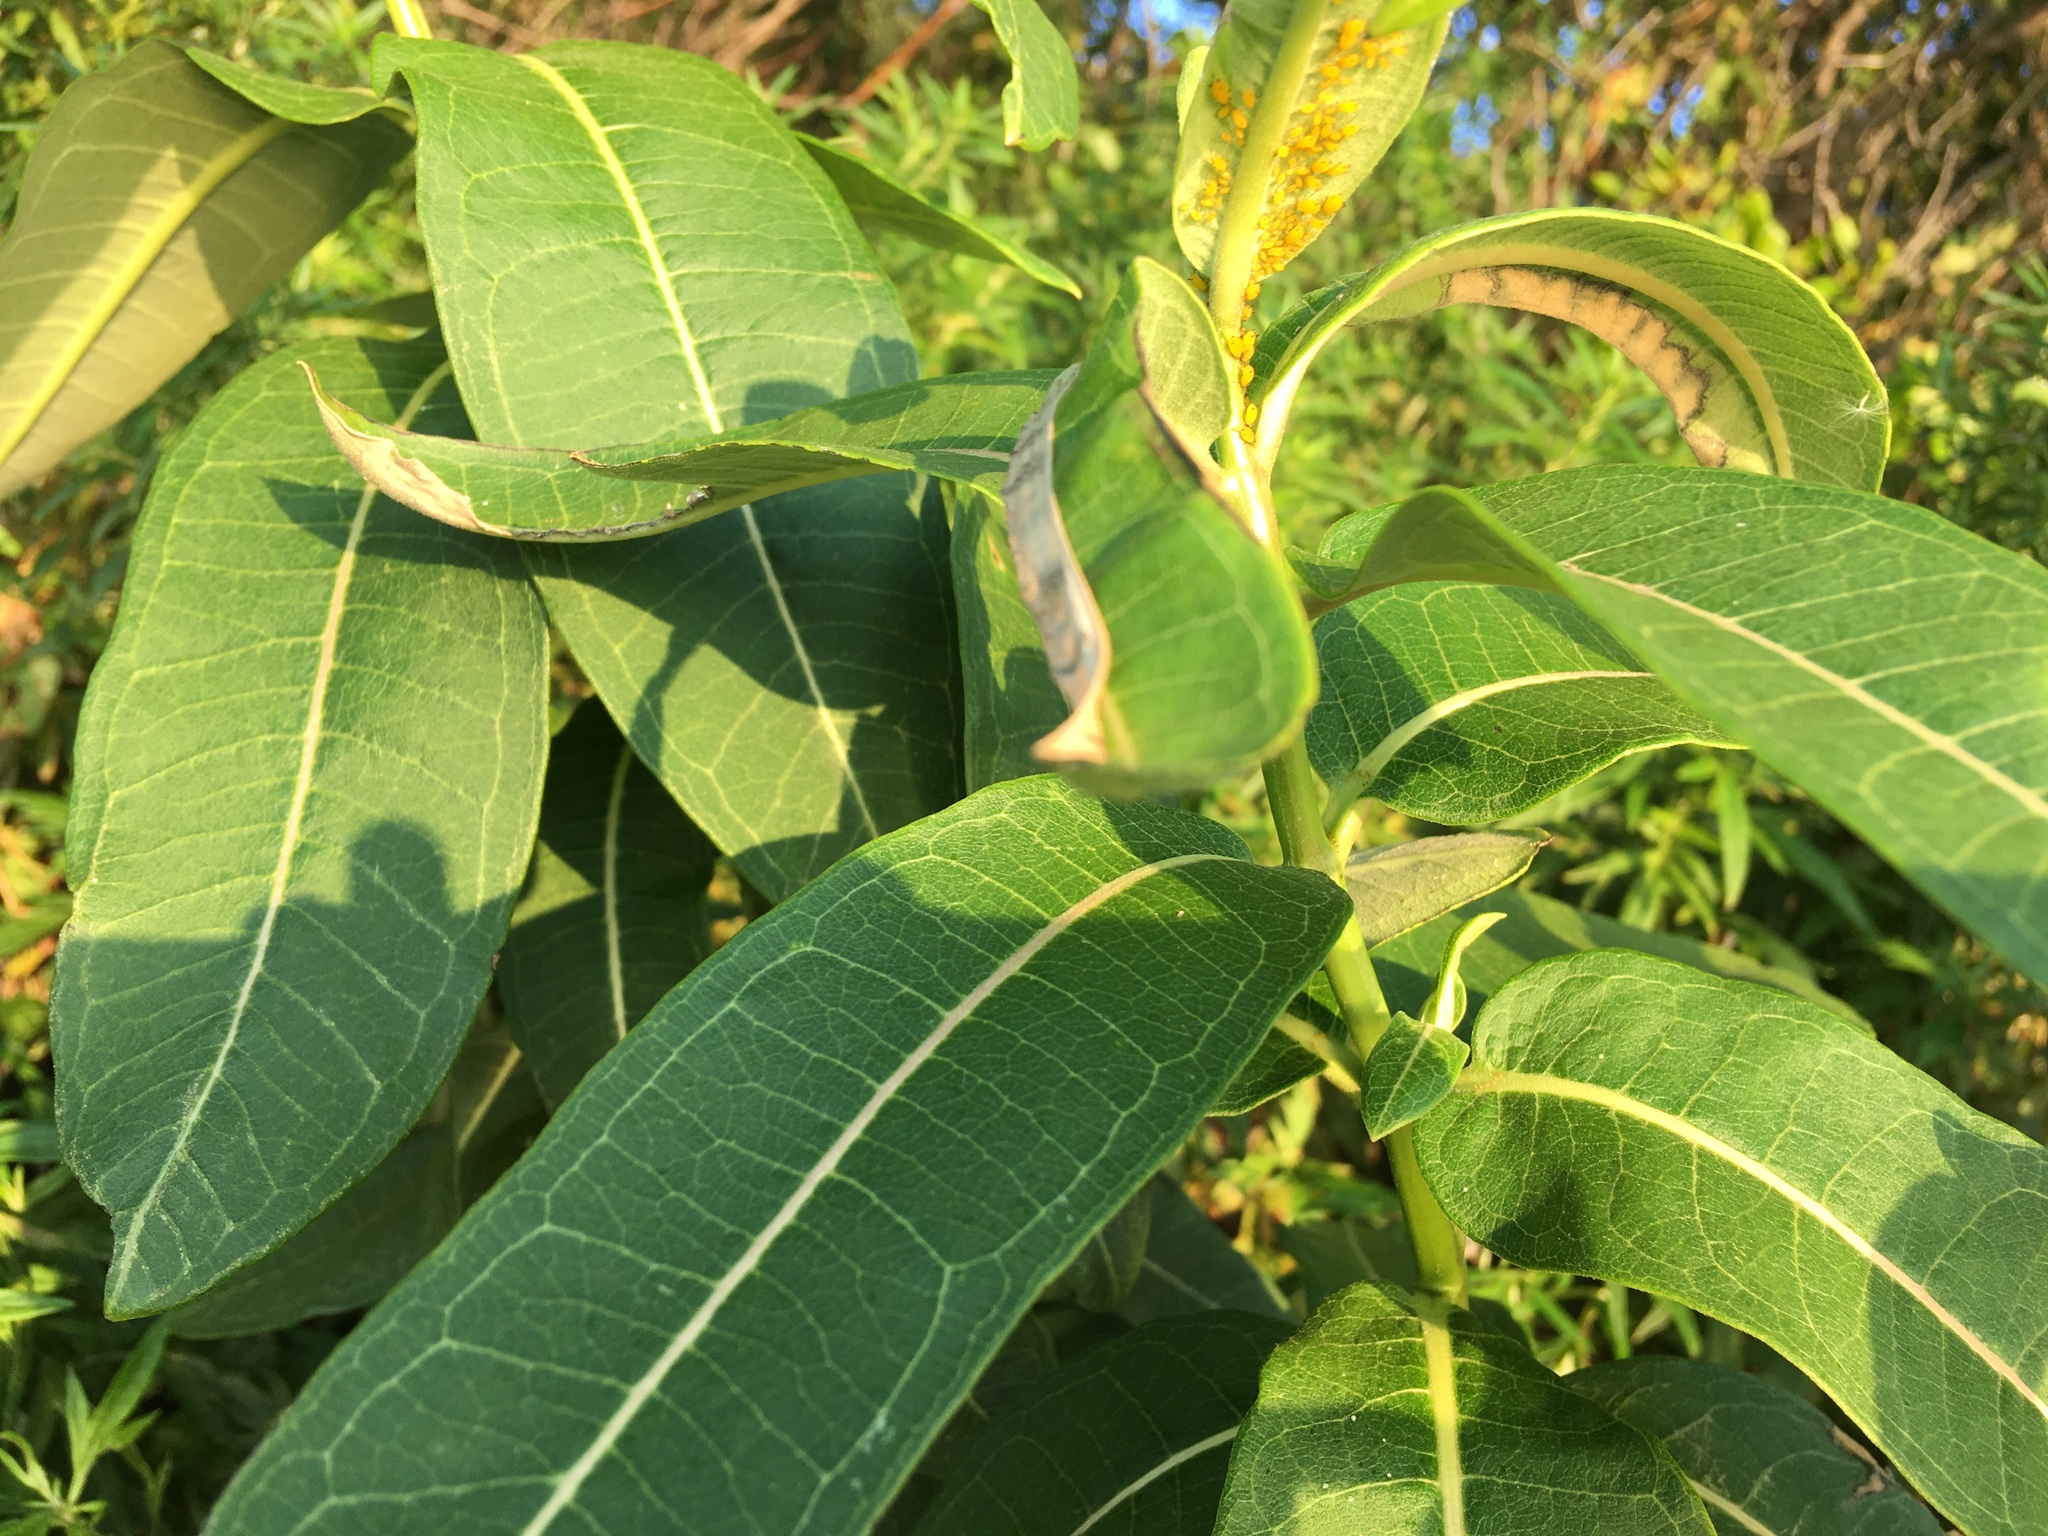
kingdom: Plantae
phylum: Tracheophyta
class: Magnoliopsida
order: Gentianales
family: Apocynaceae
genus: Asclepias
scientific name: Asclepias syriaca
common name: Common milkweed
